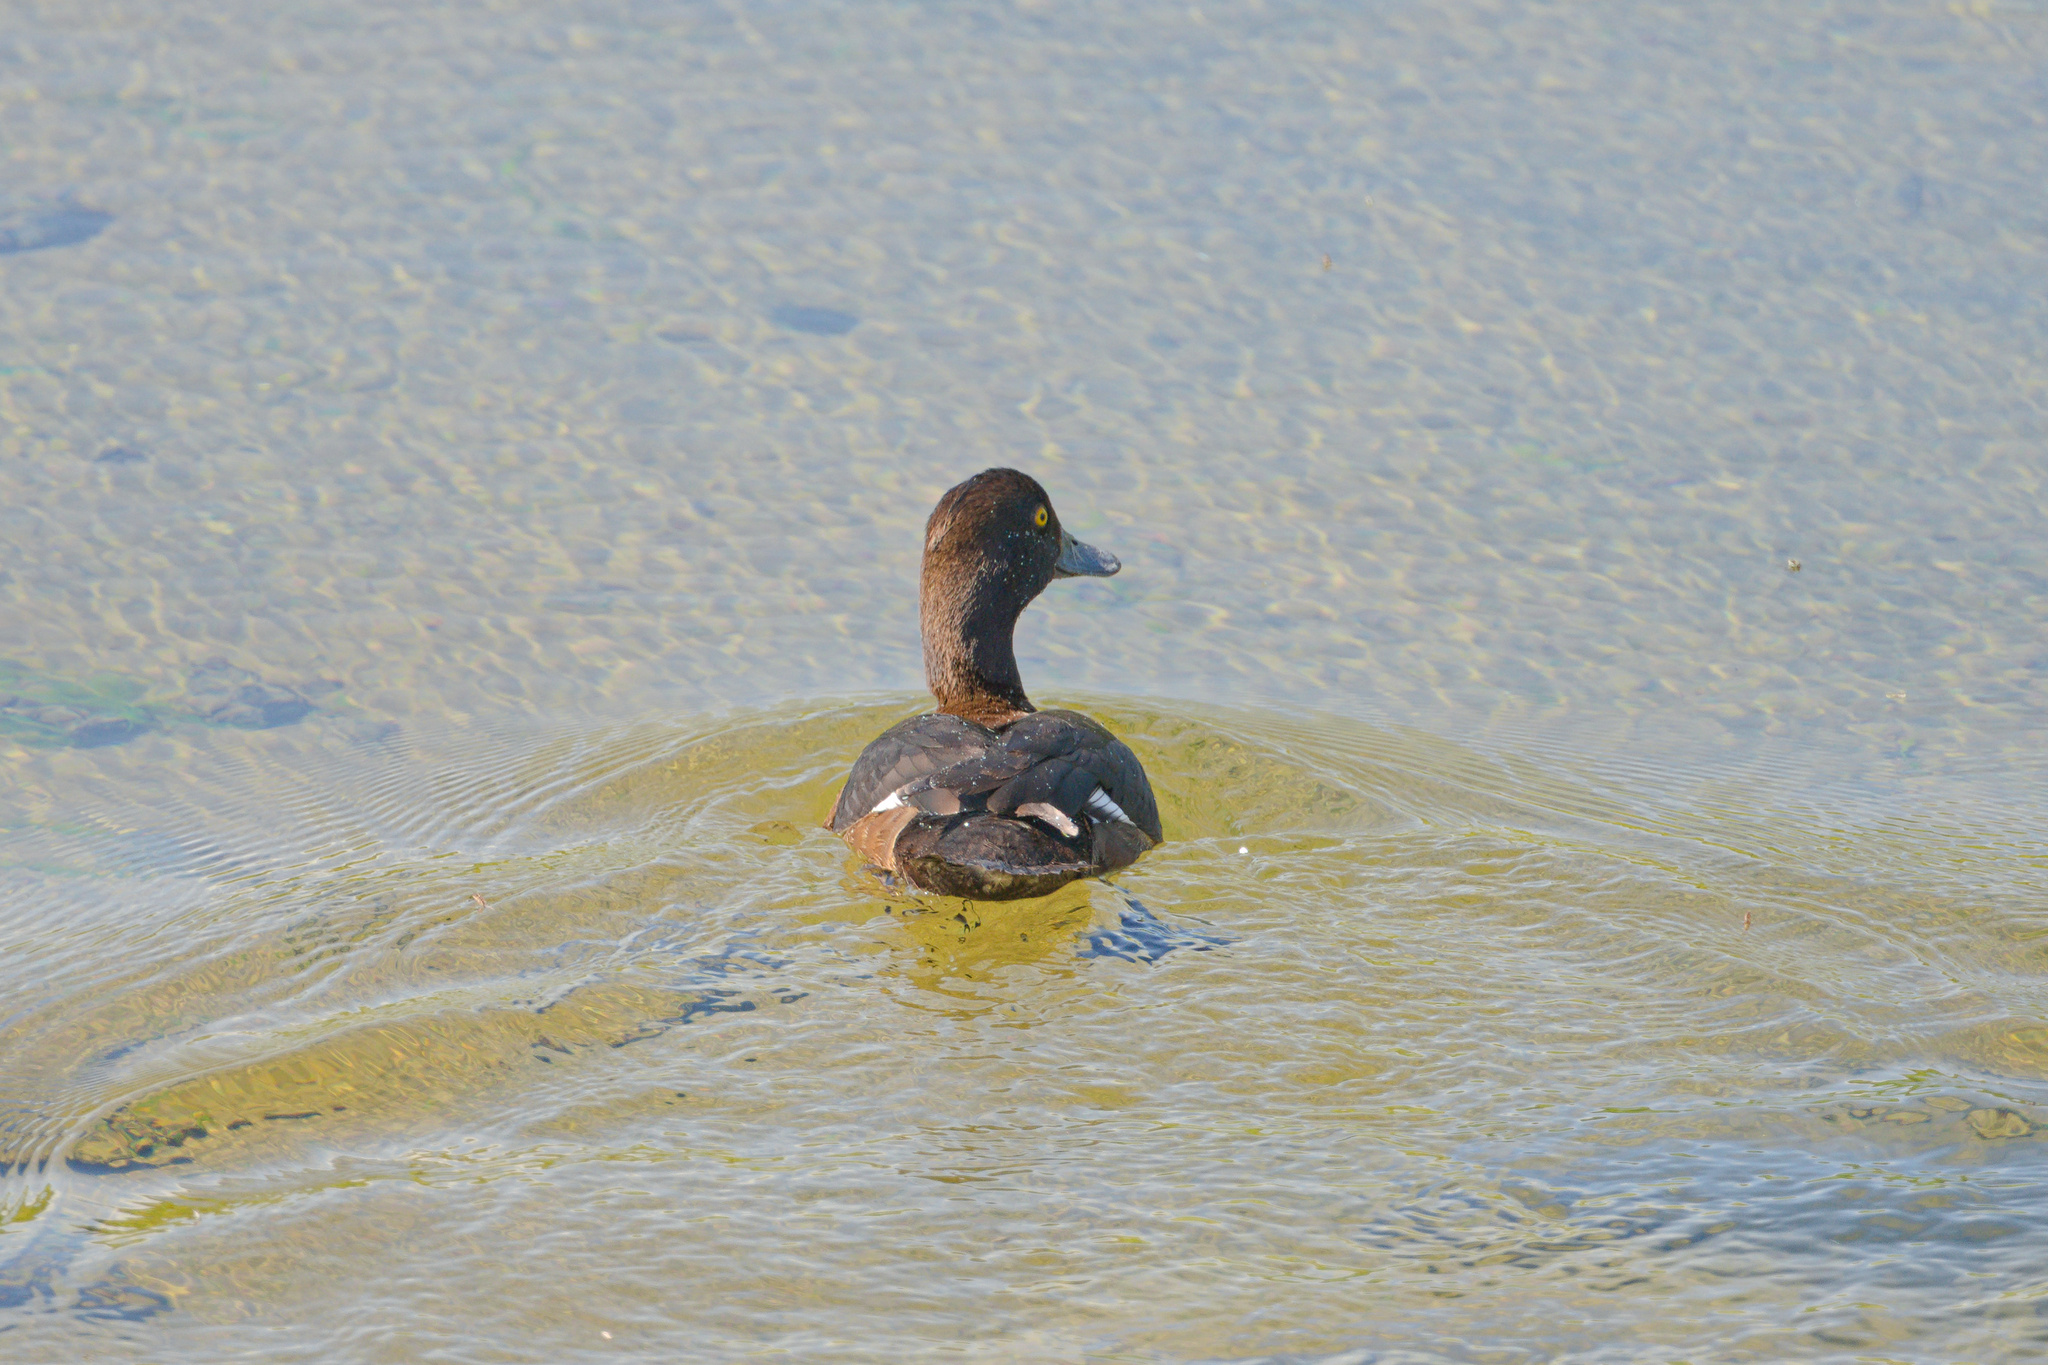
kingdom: Animalia
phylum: Chordata
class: Aves
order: Anseriformes
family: Anatidae
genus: Aythya
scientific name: Aythya fuligula
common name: Tufted duck
